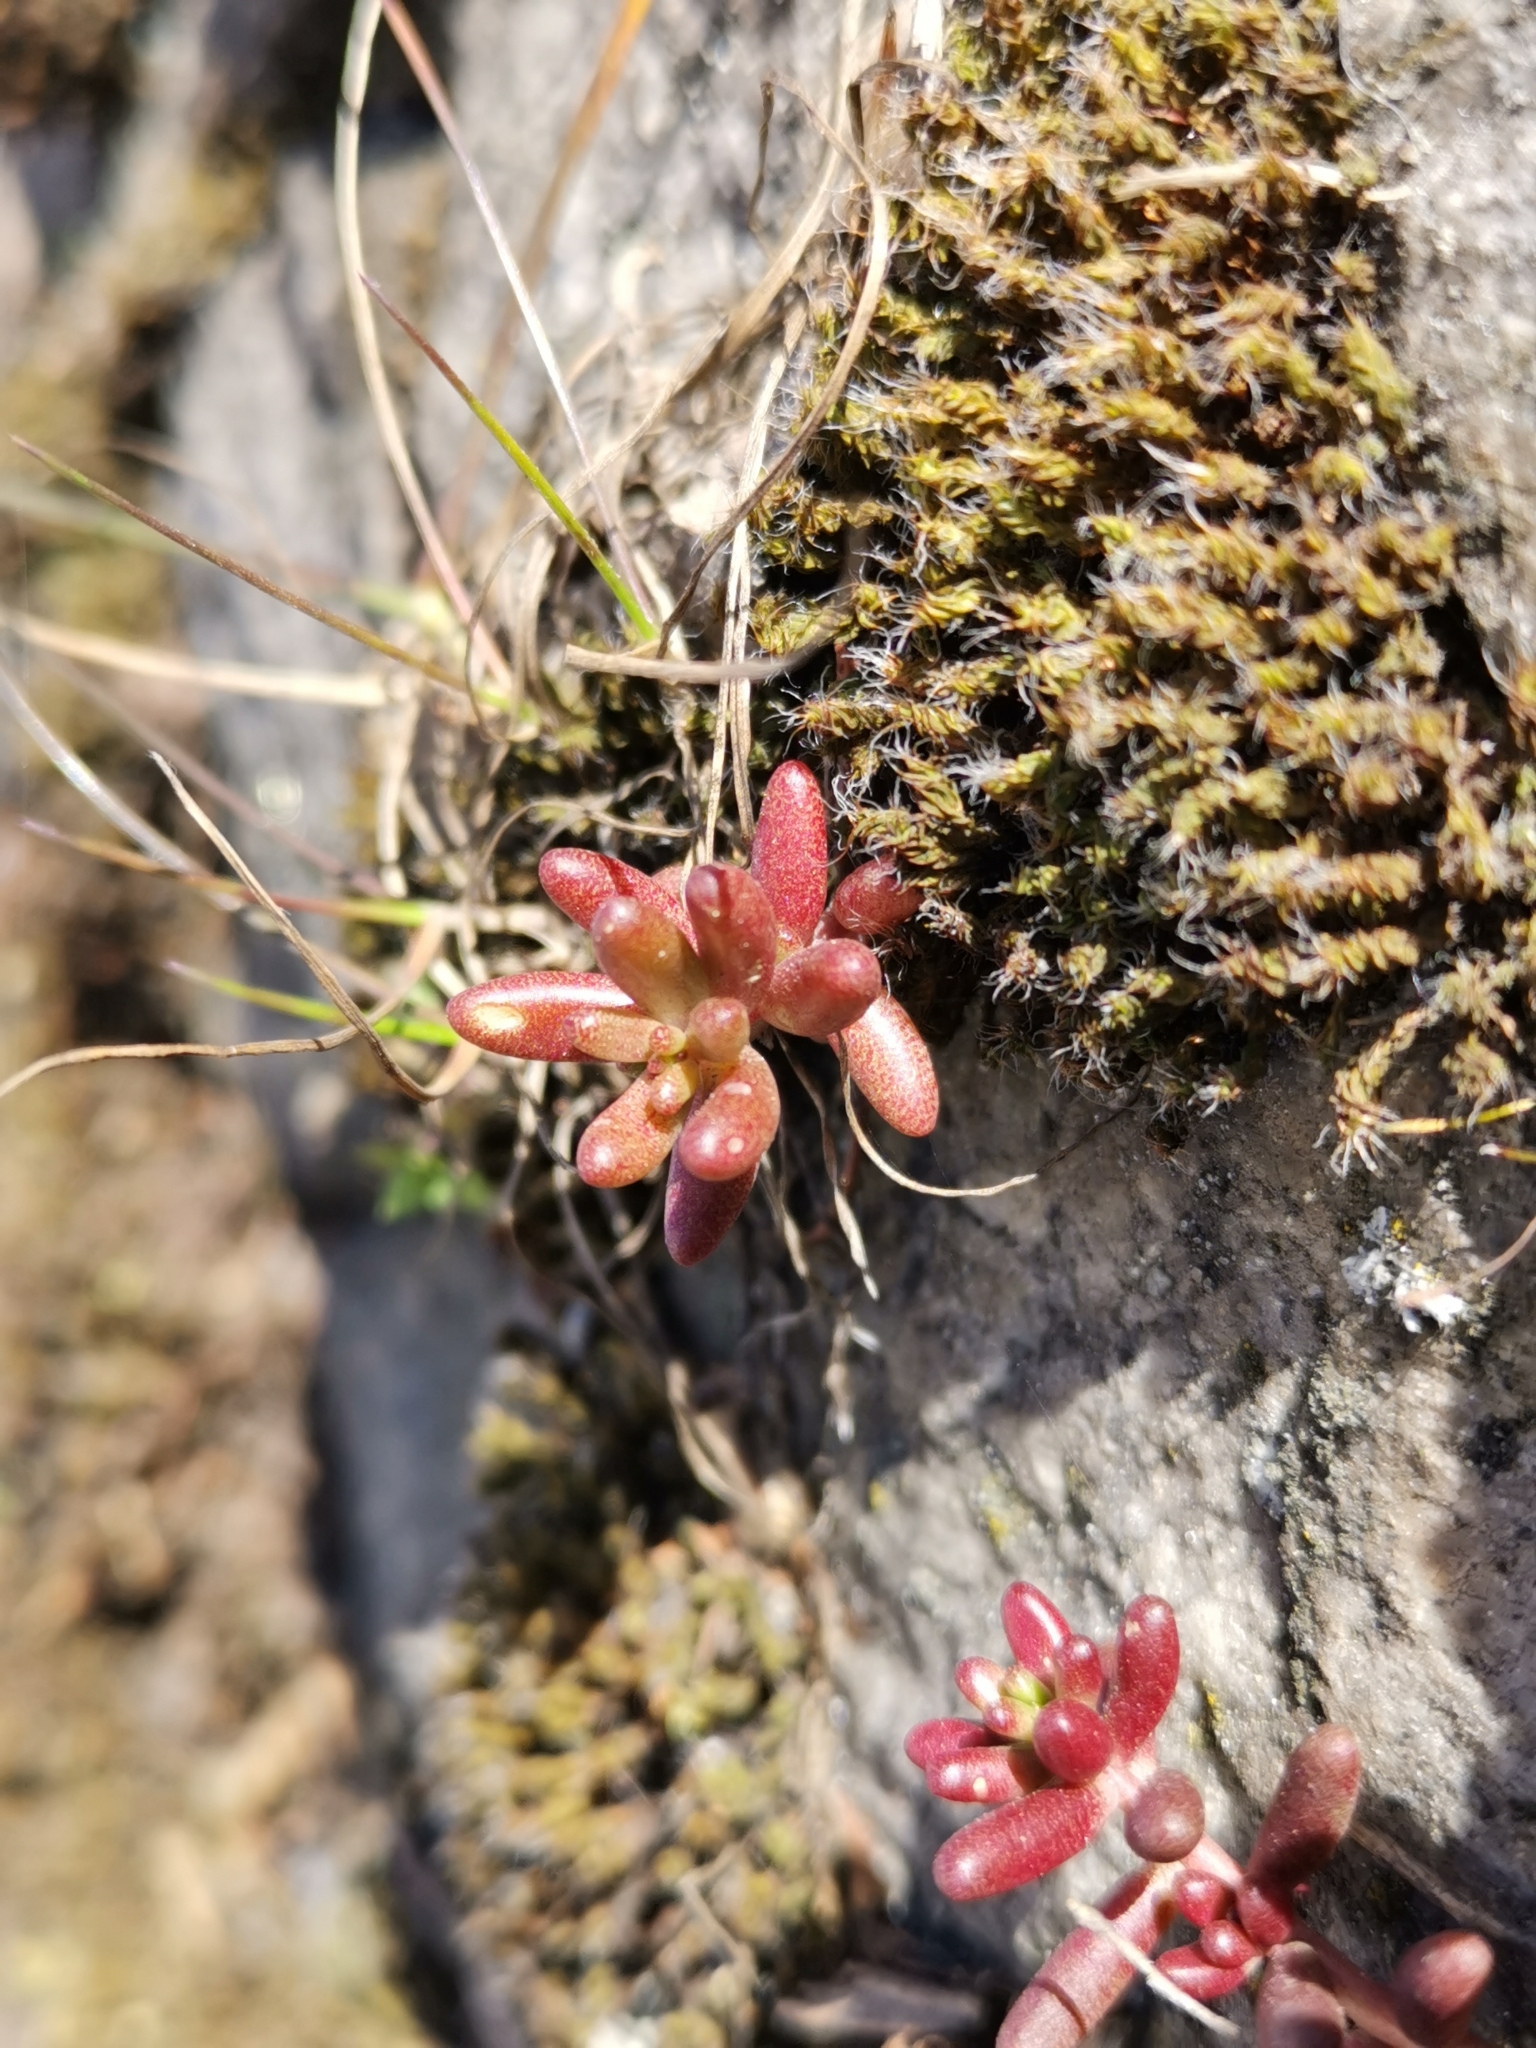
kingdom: Plantae
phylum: Tracheophyta
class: Magnoliopsida
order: Saxifragales
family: Crassulaceae
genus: Sedum
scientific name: Sedum album
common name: White stonecrop
